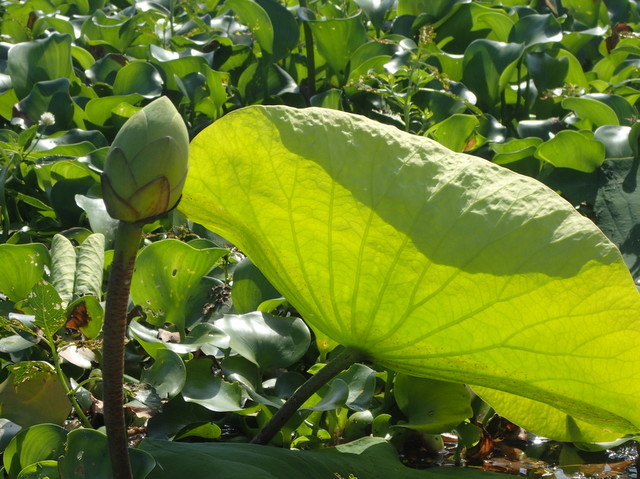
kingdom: Plantae
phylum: Tracheophyta
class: Magnoliopsida
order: Proteales
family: Nelumbonaceae
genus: Nelumbo
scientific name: Nelumbo lutea
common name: American lotus
